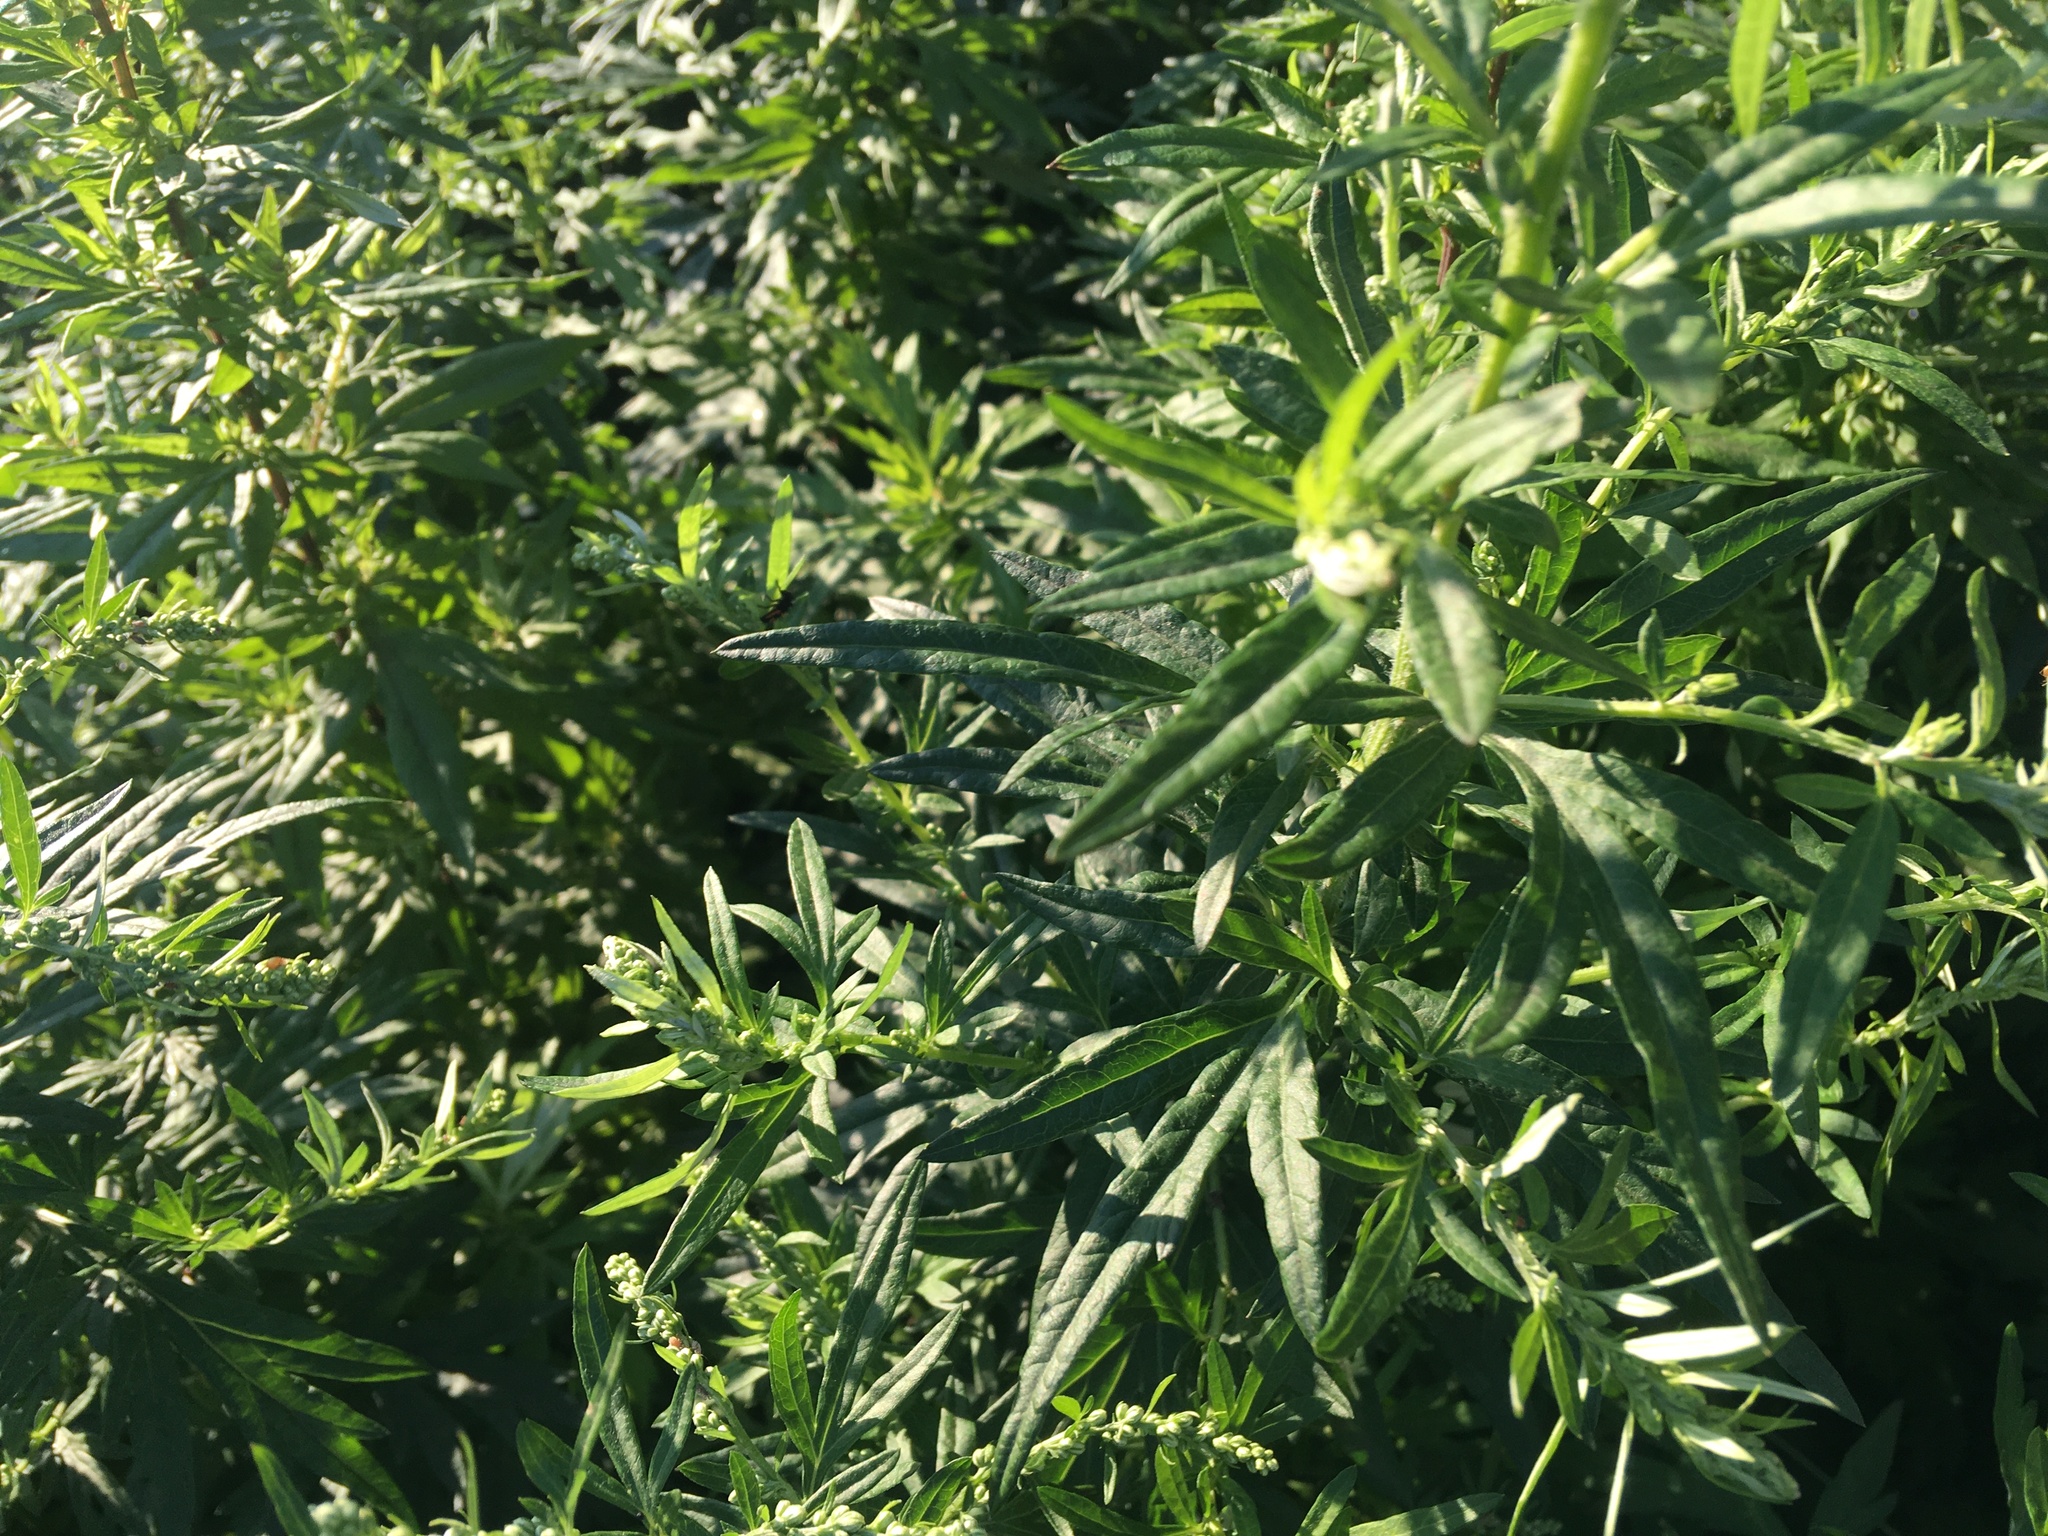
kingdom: Plantae
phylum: Tracheophyta
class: Magnoliopsida
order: Asterales
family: Asteraceae
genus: Artemisia
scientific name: Artemisia vulgaris
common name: Mugwort
